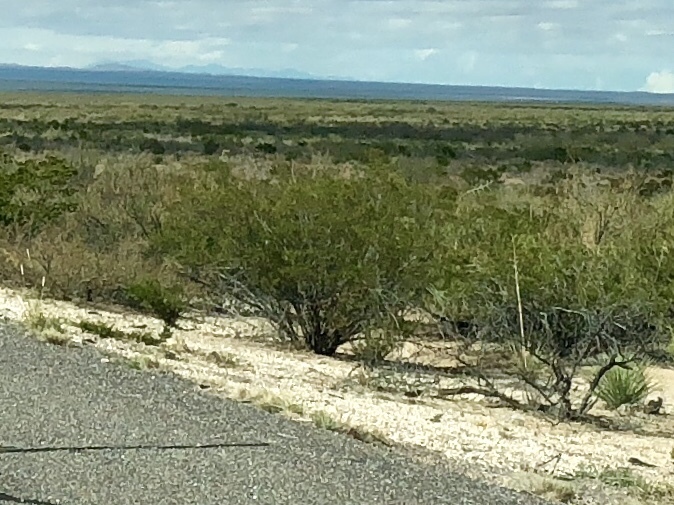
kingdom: Plantae
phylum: Tracheophyta
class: Magnoliopsida
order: Zygophyllales
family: Zygophyllaceae
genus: Larrea
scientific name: Larrea tridentata
